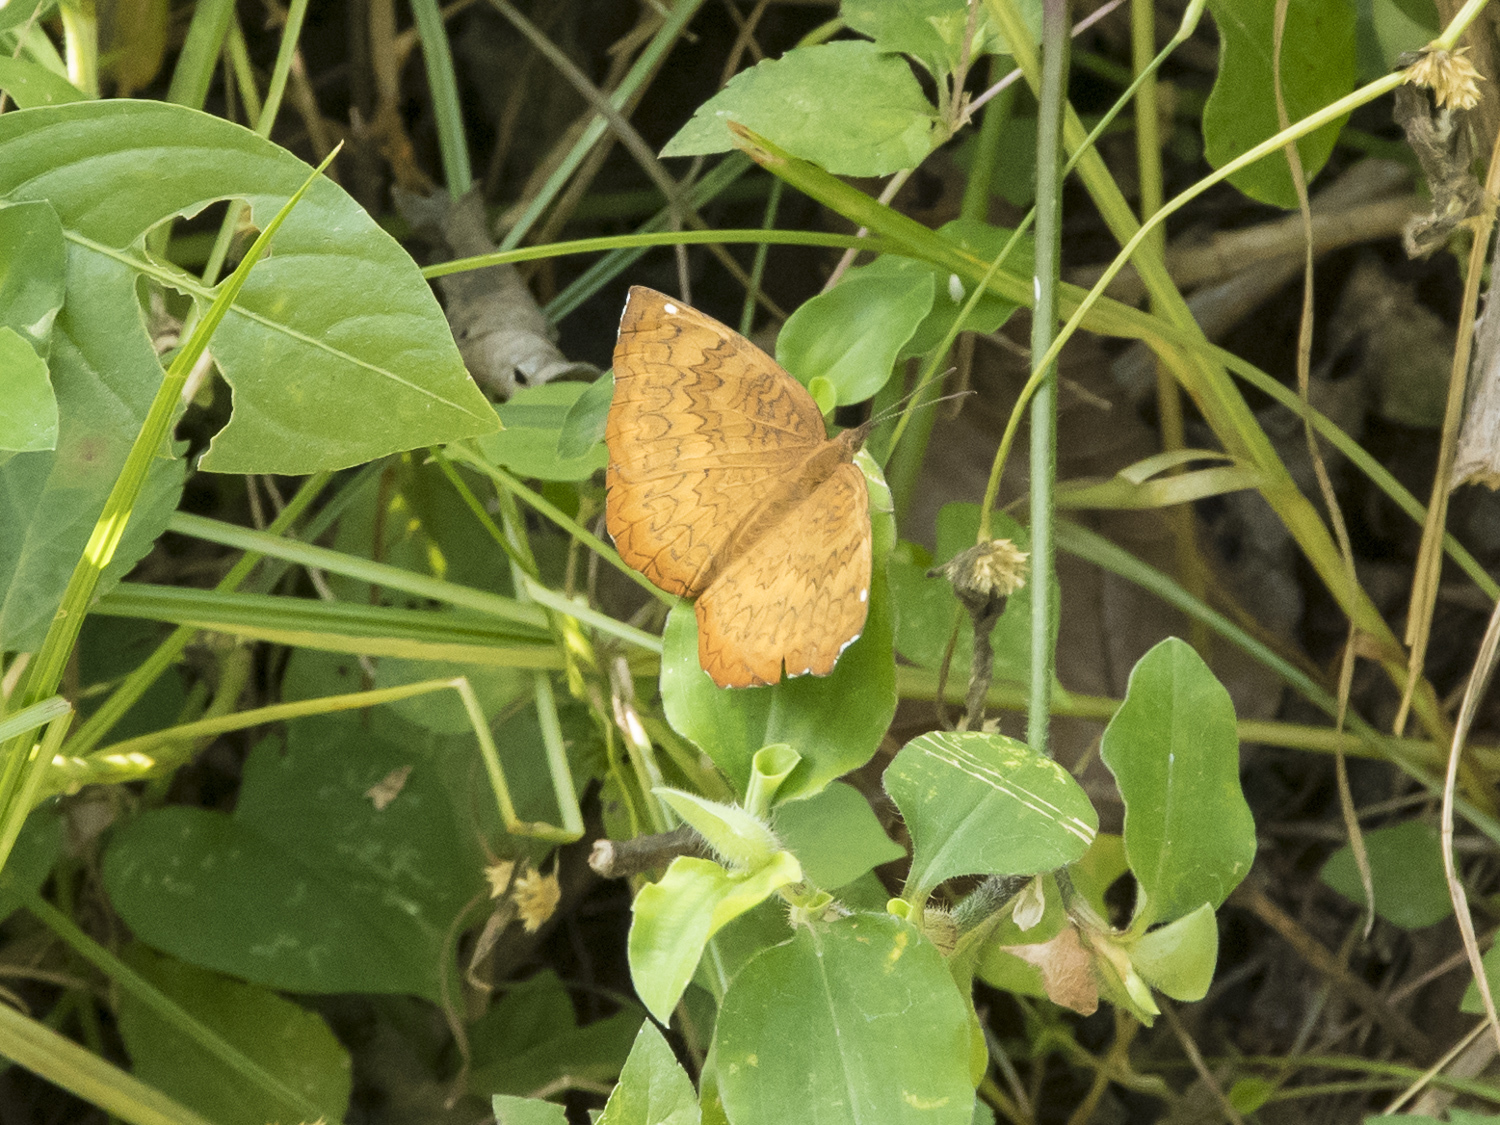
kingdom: Animalia
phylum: Arthropoda
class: Insecta
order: Lepidoptera
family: Nymphalidae
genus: Ariadne
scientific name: Ariadne merione
